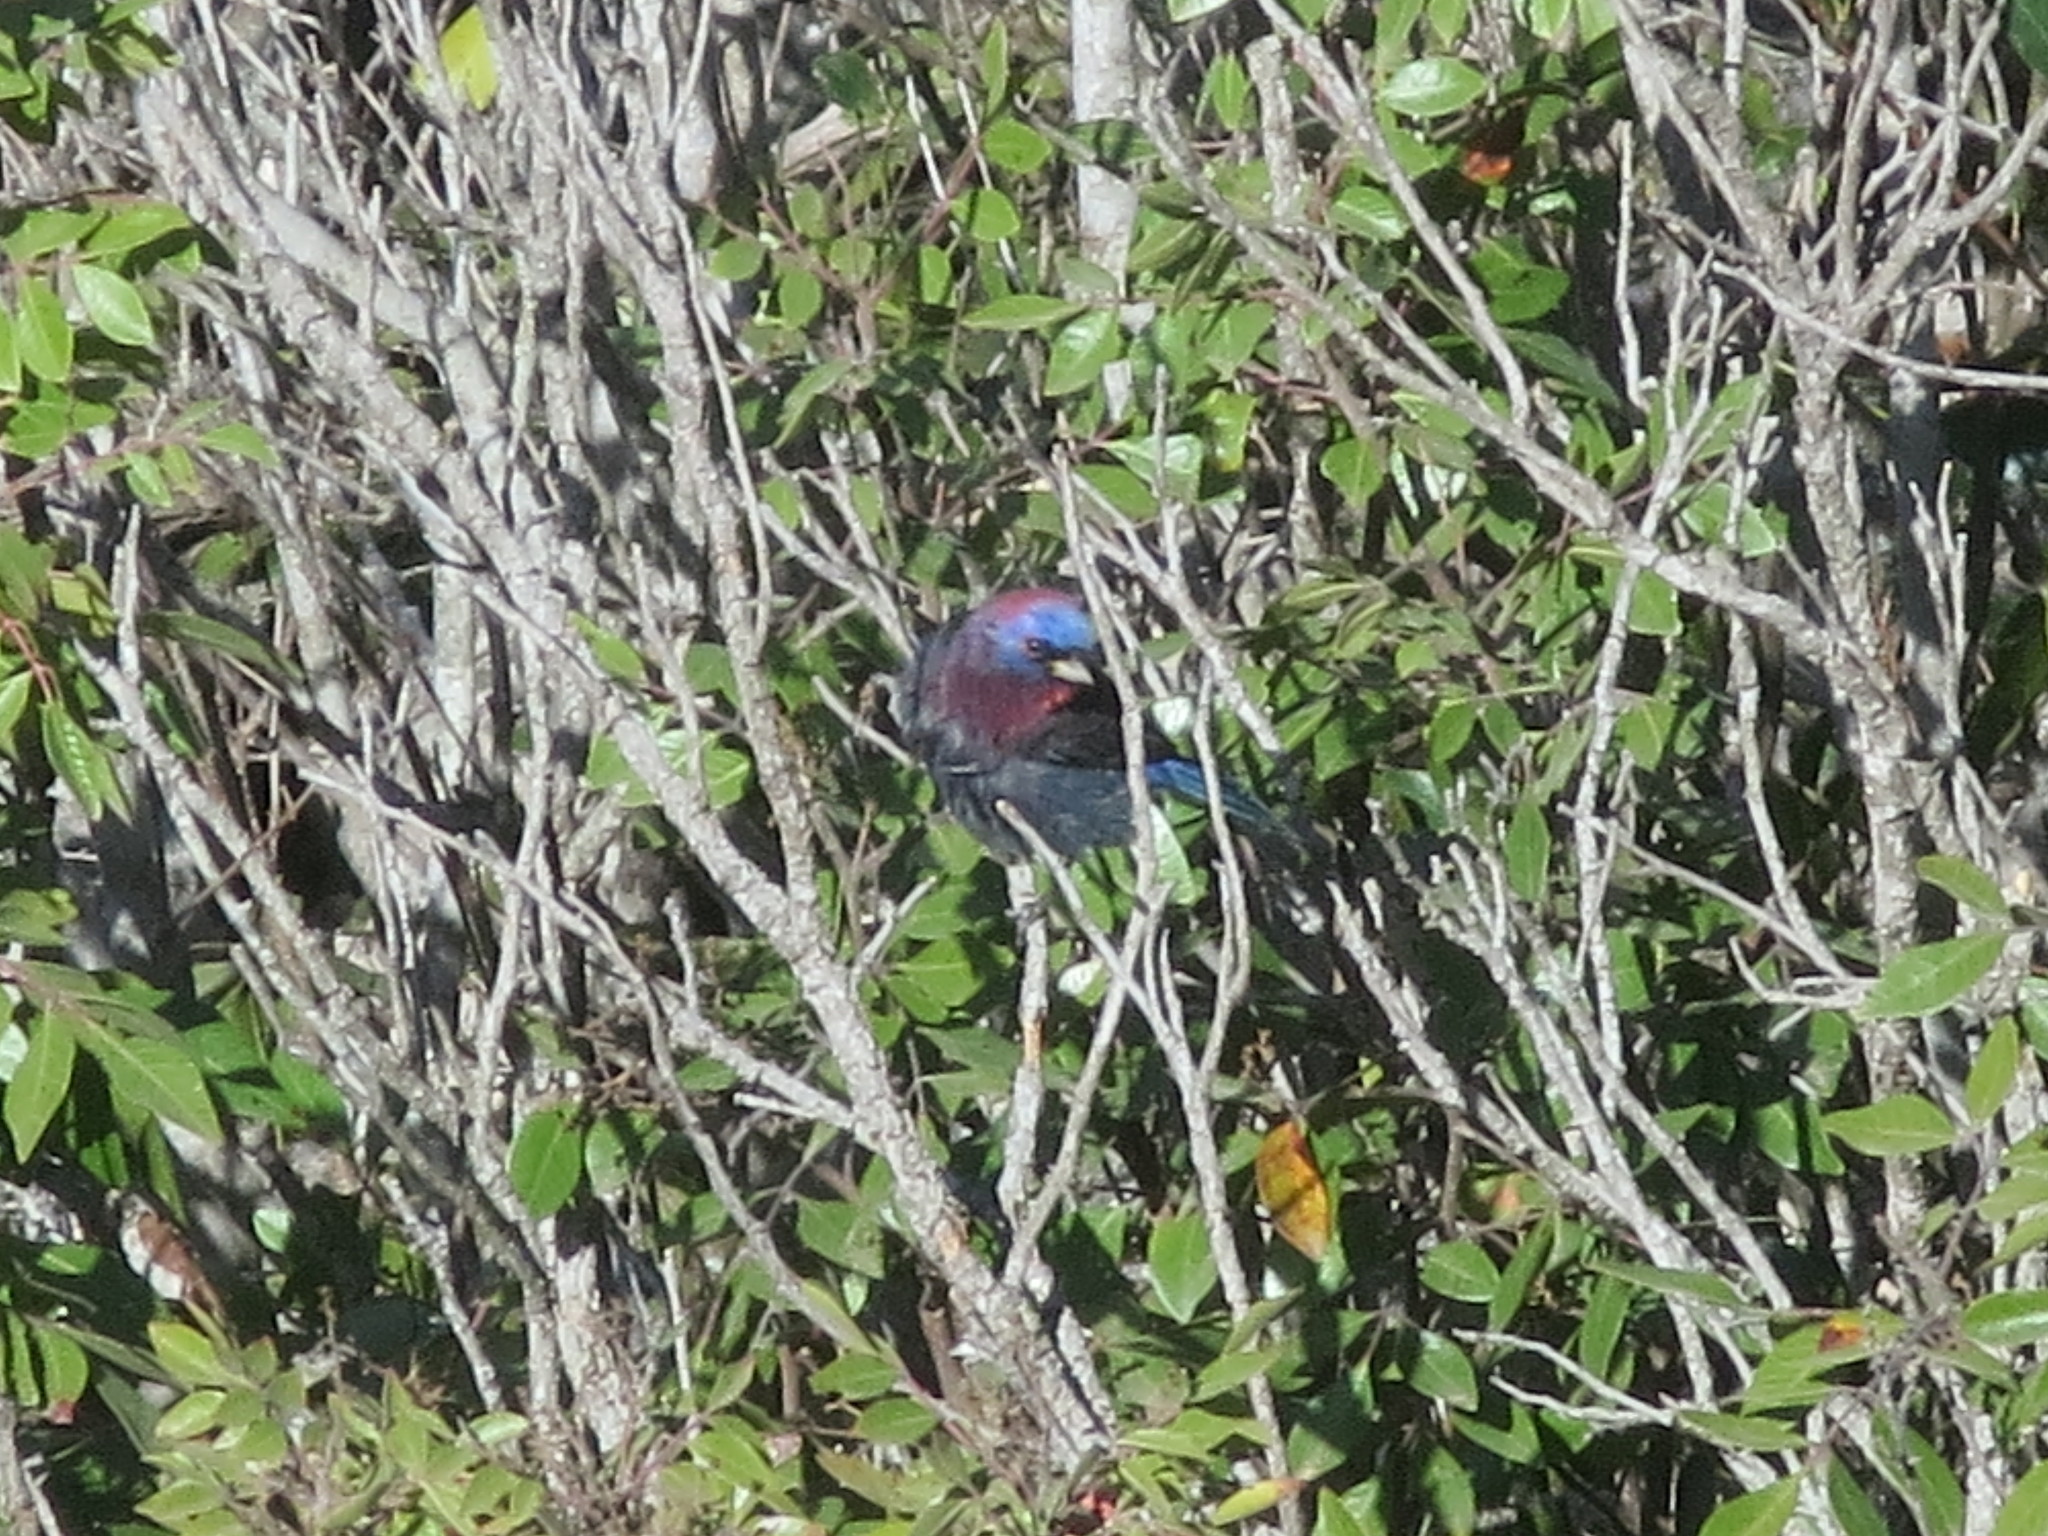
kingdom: Animalia
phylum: Chordata
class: Aves
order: Passeriformes
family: Cardinalidae
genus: Passerina
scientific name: Passerina versicolor
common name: Varied bunting
